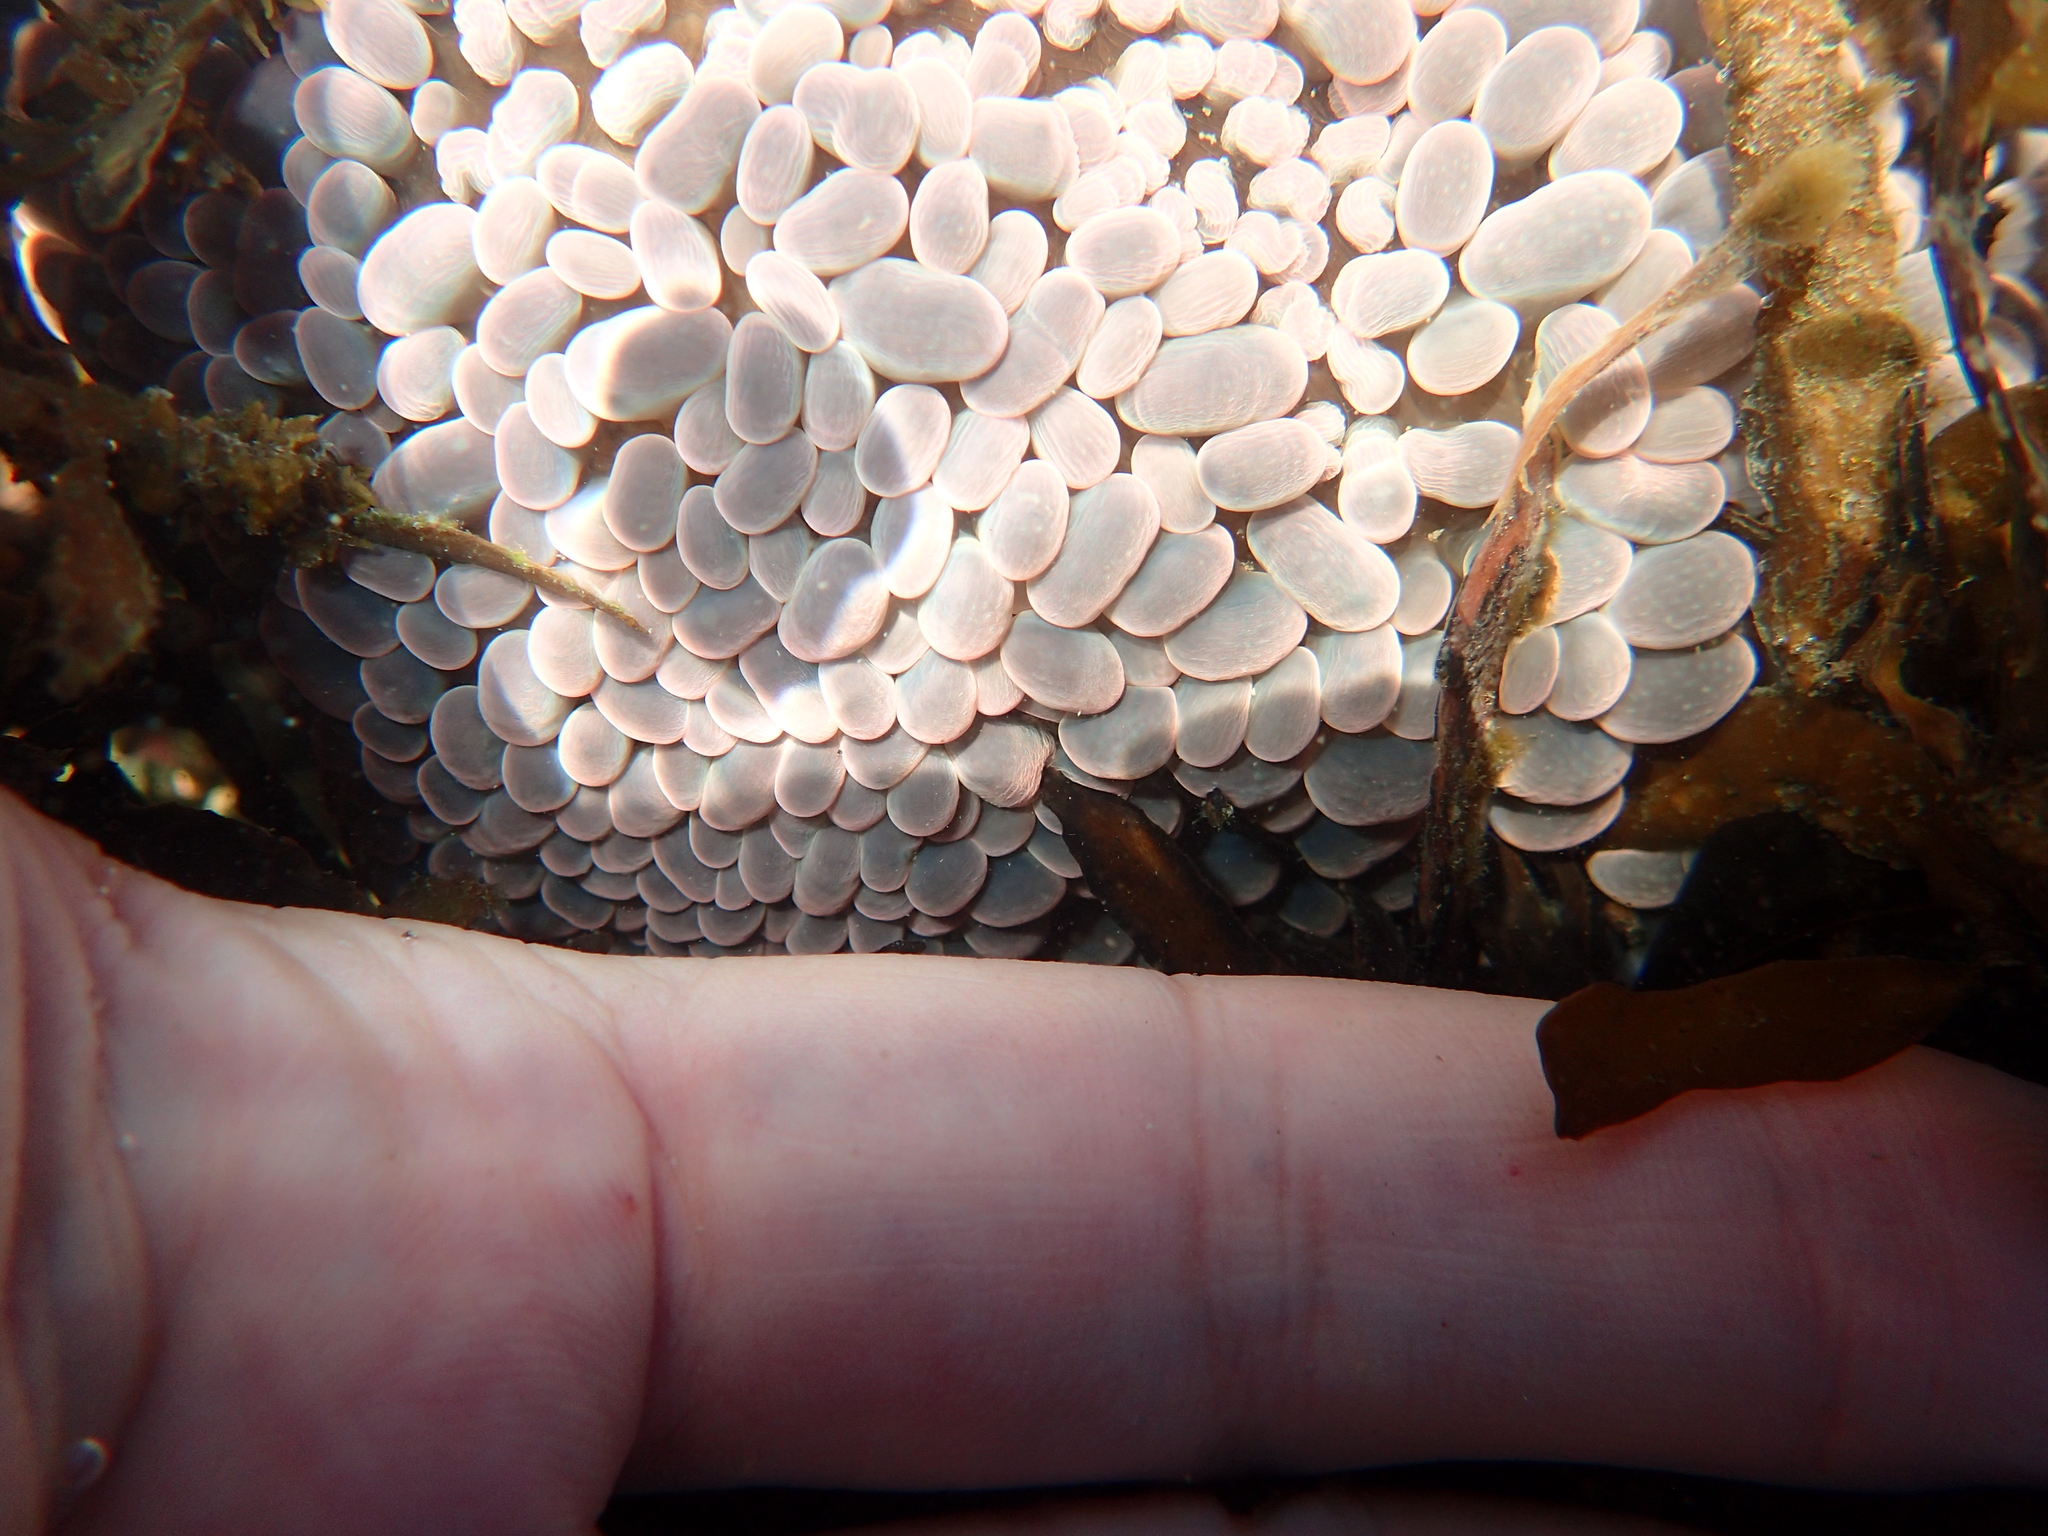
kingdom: Animalia
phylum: Cnidaria
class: Anthozoa
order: Actiniaria
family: Actiniidae
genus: Phlyctenactis
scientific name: Phlyctenactis tuberculosa
